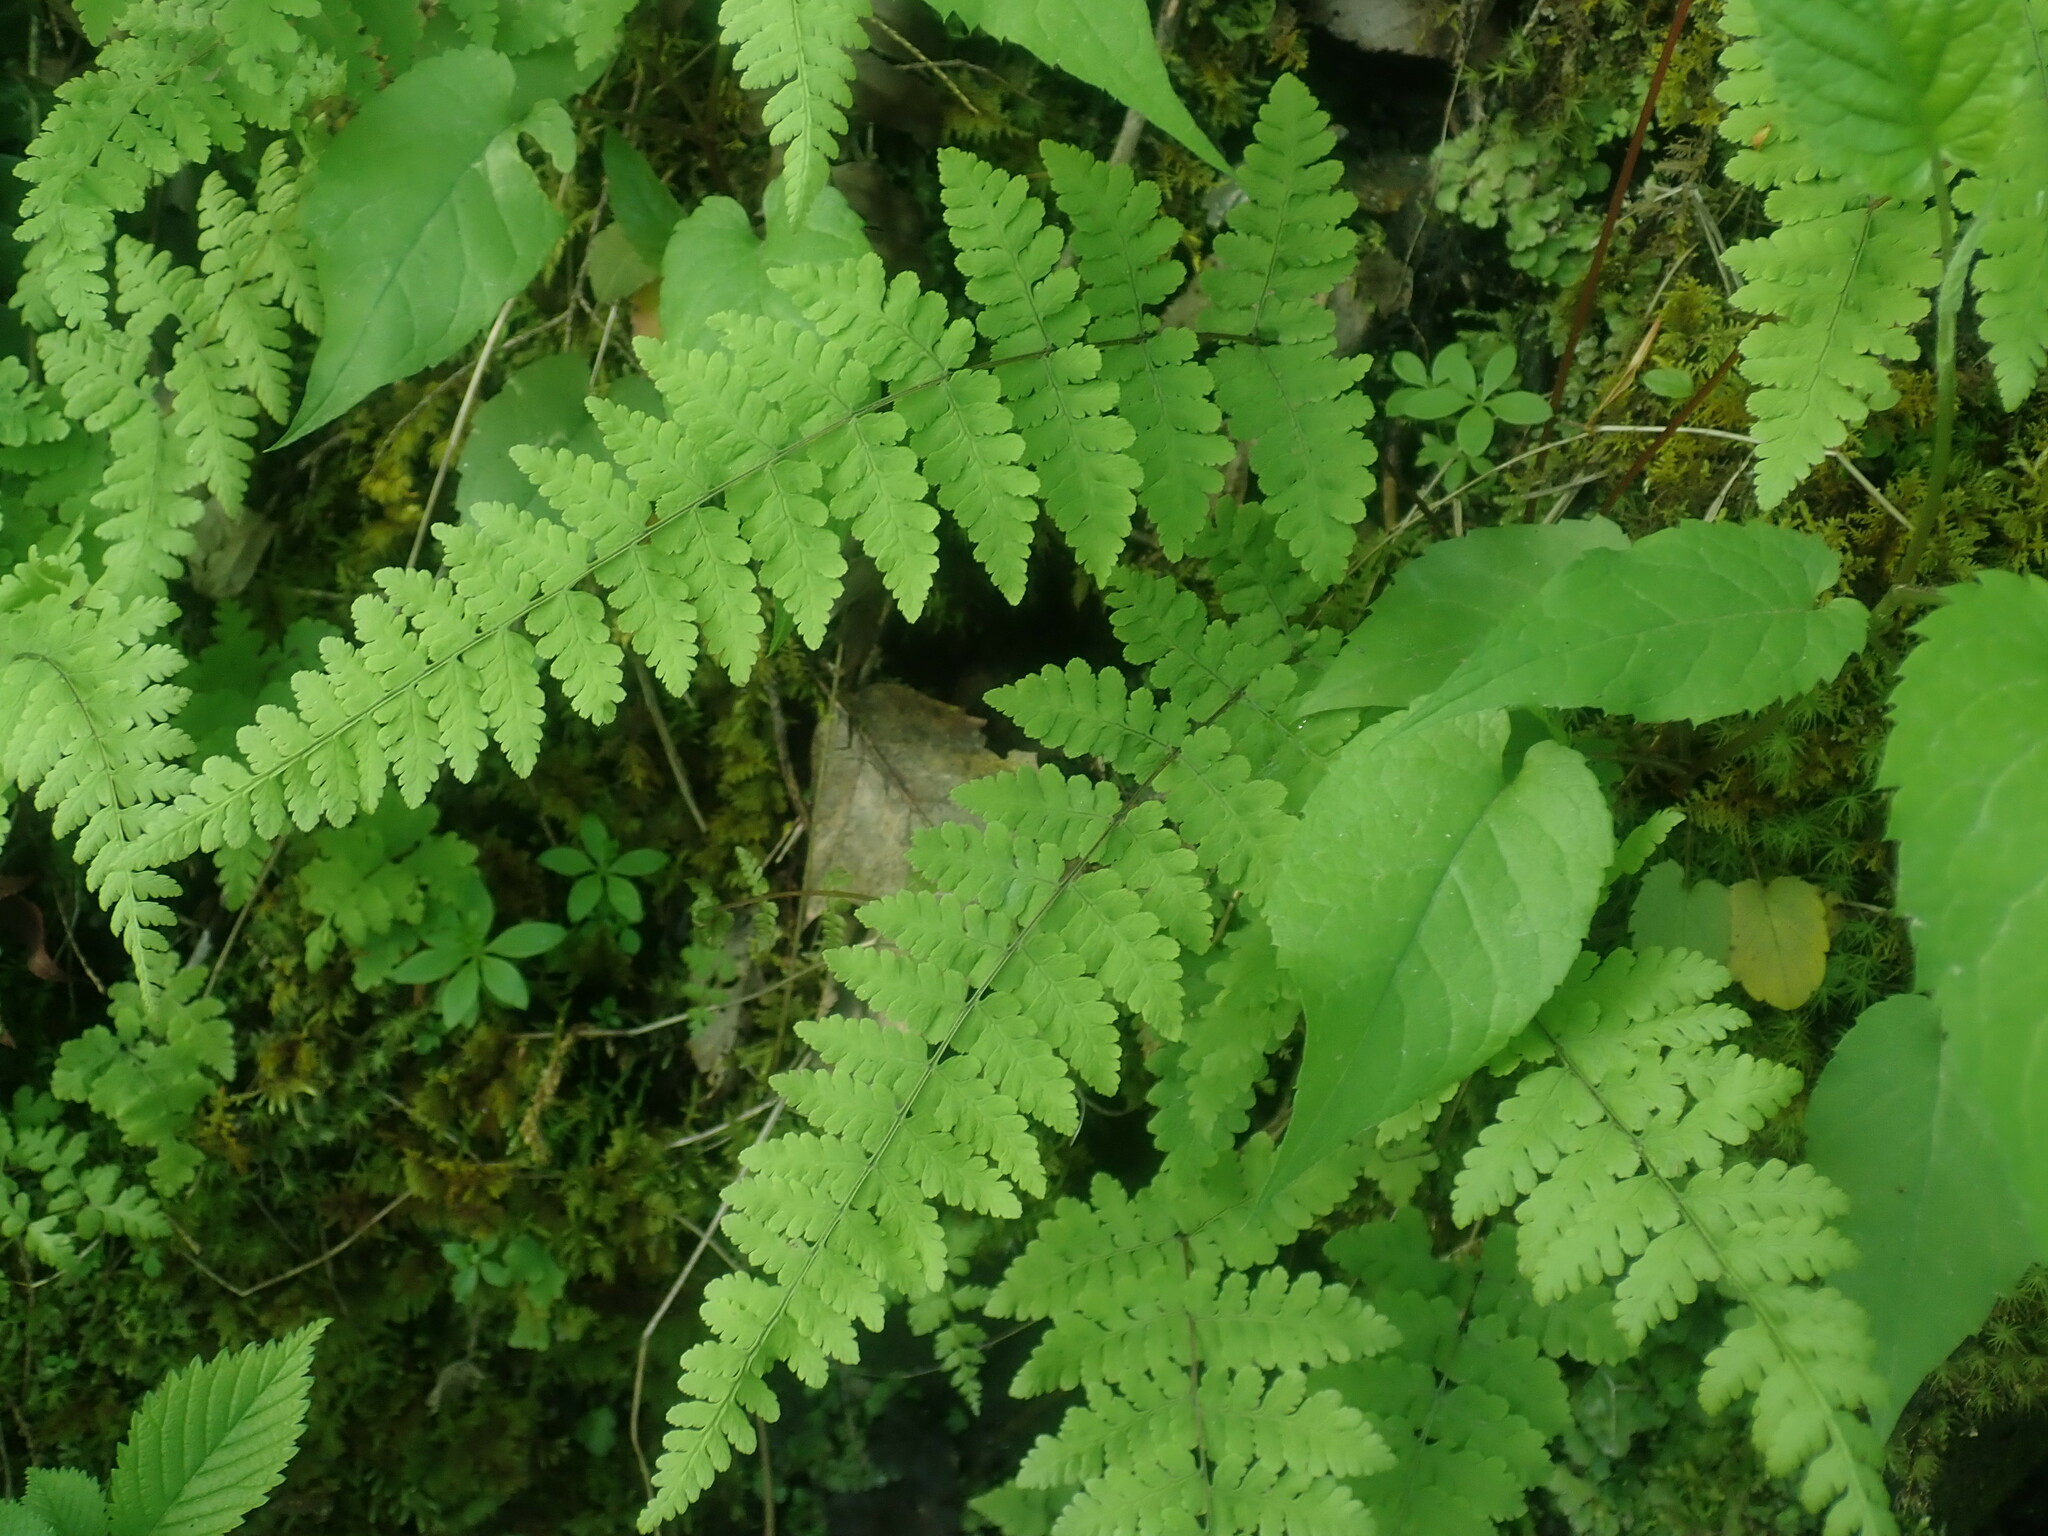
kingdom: Plantae
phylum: Tracheophyta
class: Polypodiopsida
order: Polypodiales
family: Cystopteridaceae
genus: Cystopteris
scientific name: Cystopteris bulbifera
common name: Bulblet bladder fern
